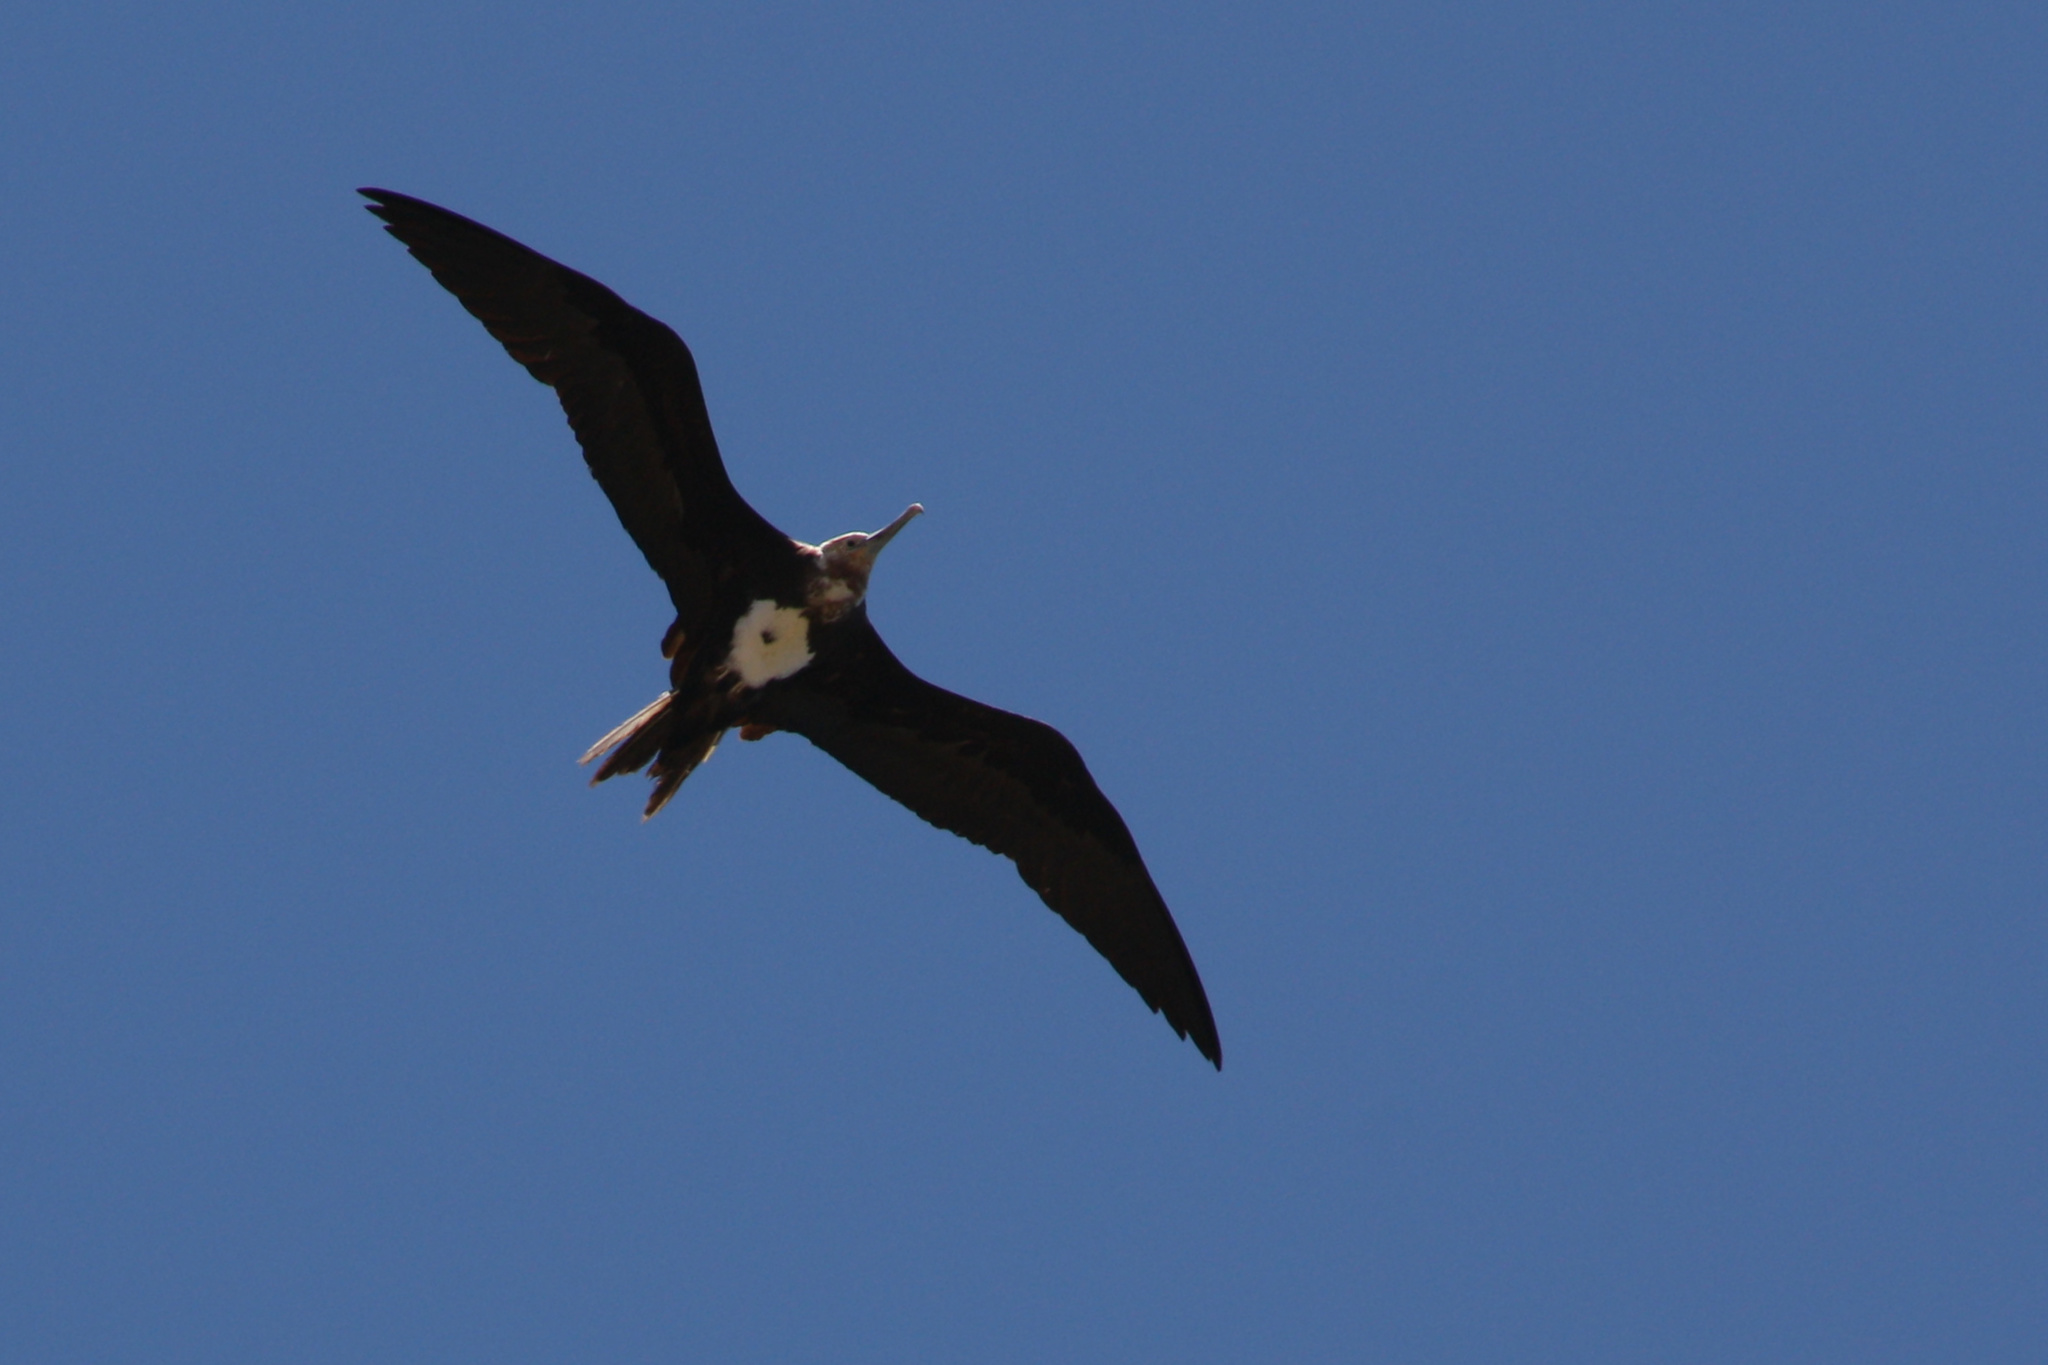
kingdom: Animalia
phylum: Chordata
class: Aves
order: Suliformes
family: Fregatidae
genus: Fregata
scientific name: Fregata minor
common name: Great frigatebird
